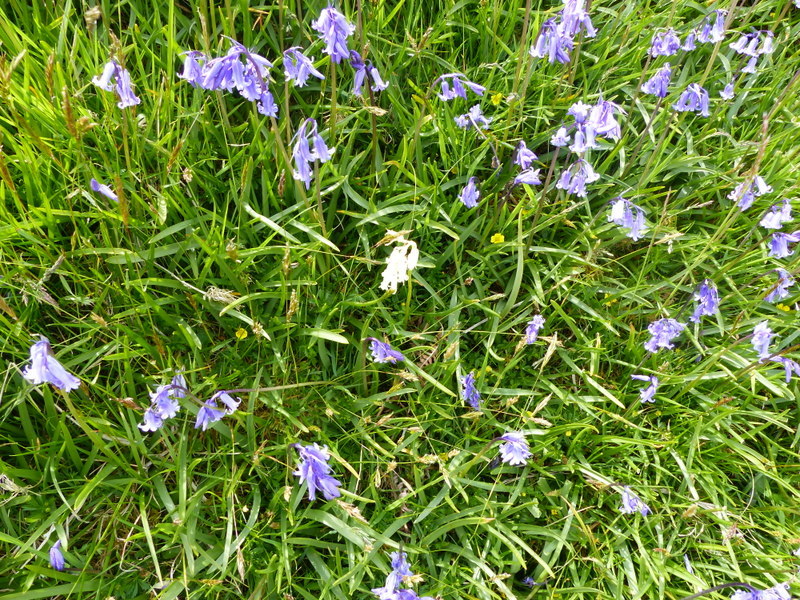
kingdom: Plantae
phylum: Tracheophyta
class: Liliopsida
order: Asparagales
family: Asparagaceae
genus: Hyacinthoides
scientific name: Hyacinthoides non-scripta
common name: Bluebell
